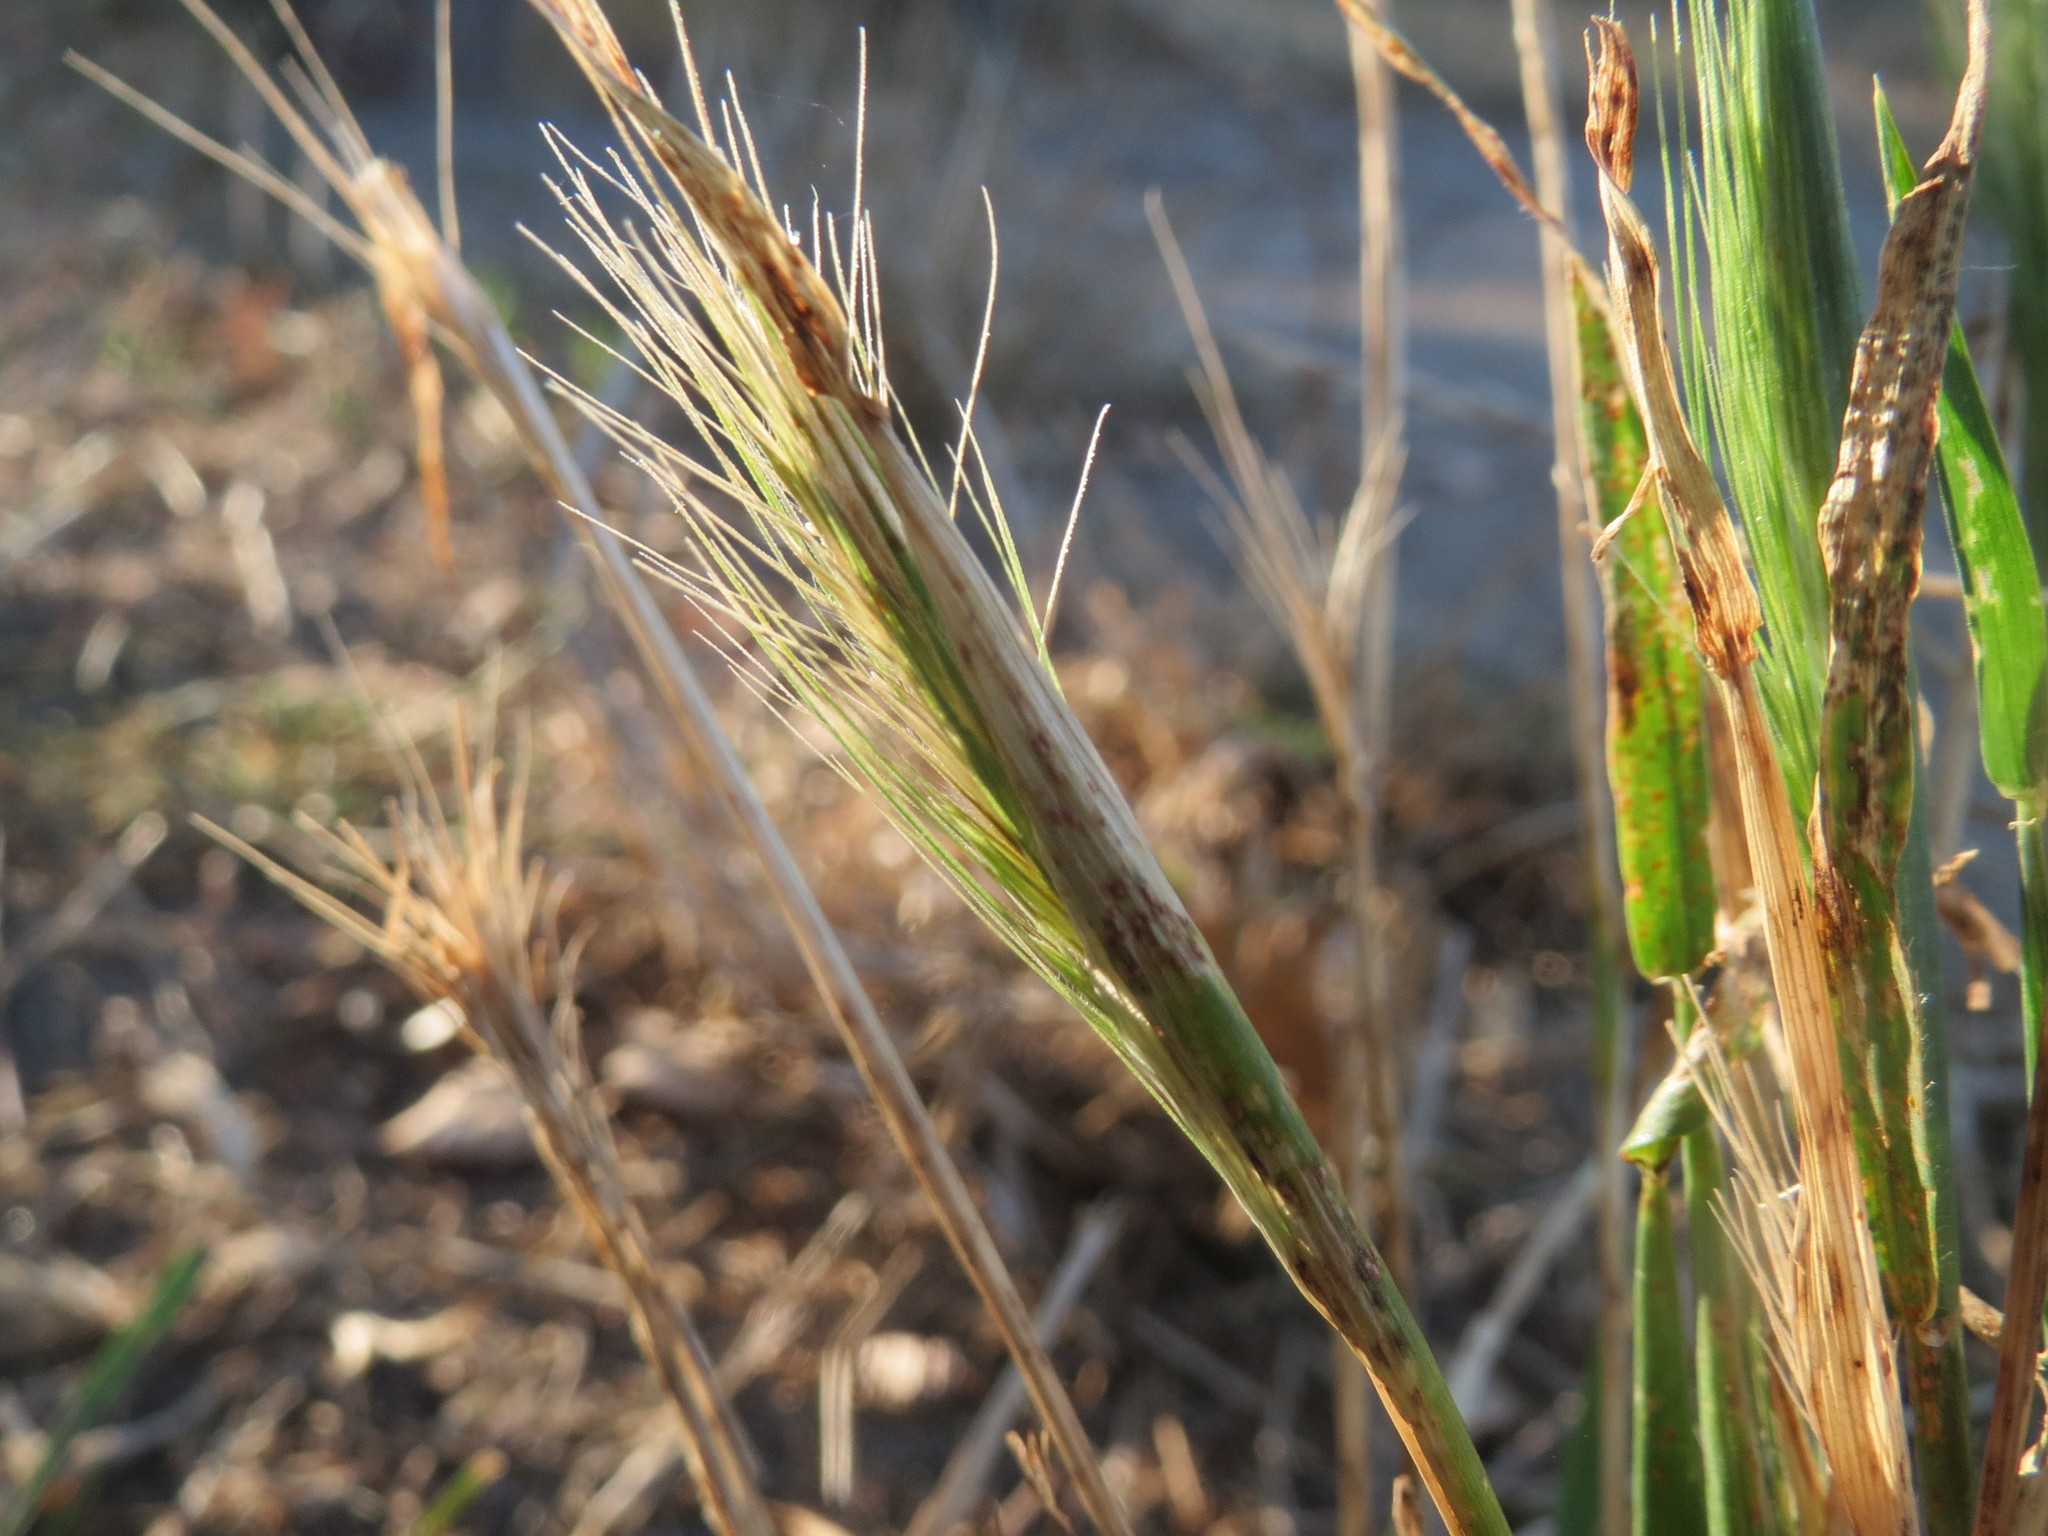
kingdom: Plantae
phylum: Tracheophyta
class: Liliopsida
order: Poales
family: Poaceae
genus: Hordeum
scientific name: Hordeum murinum
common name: Wall barley
